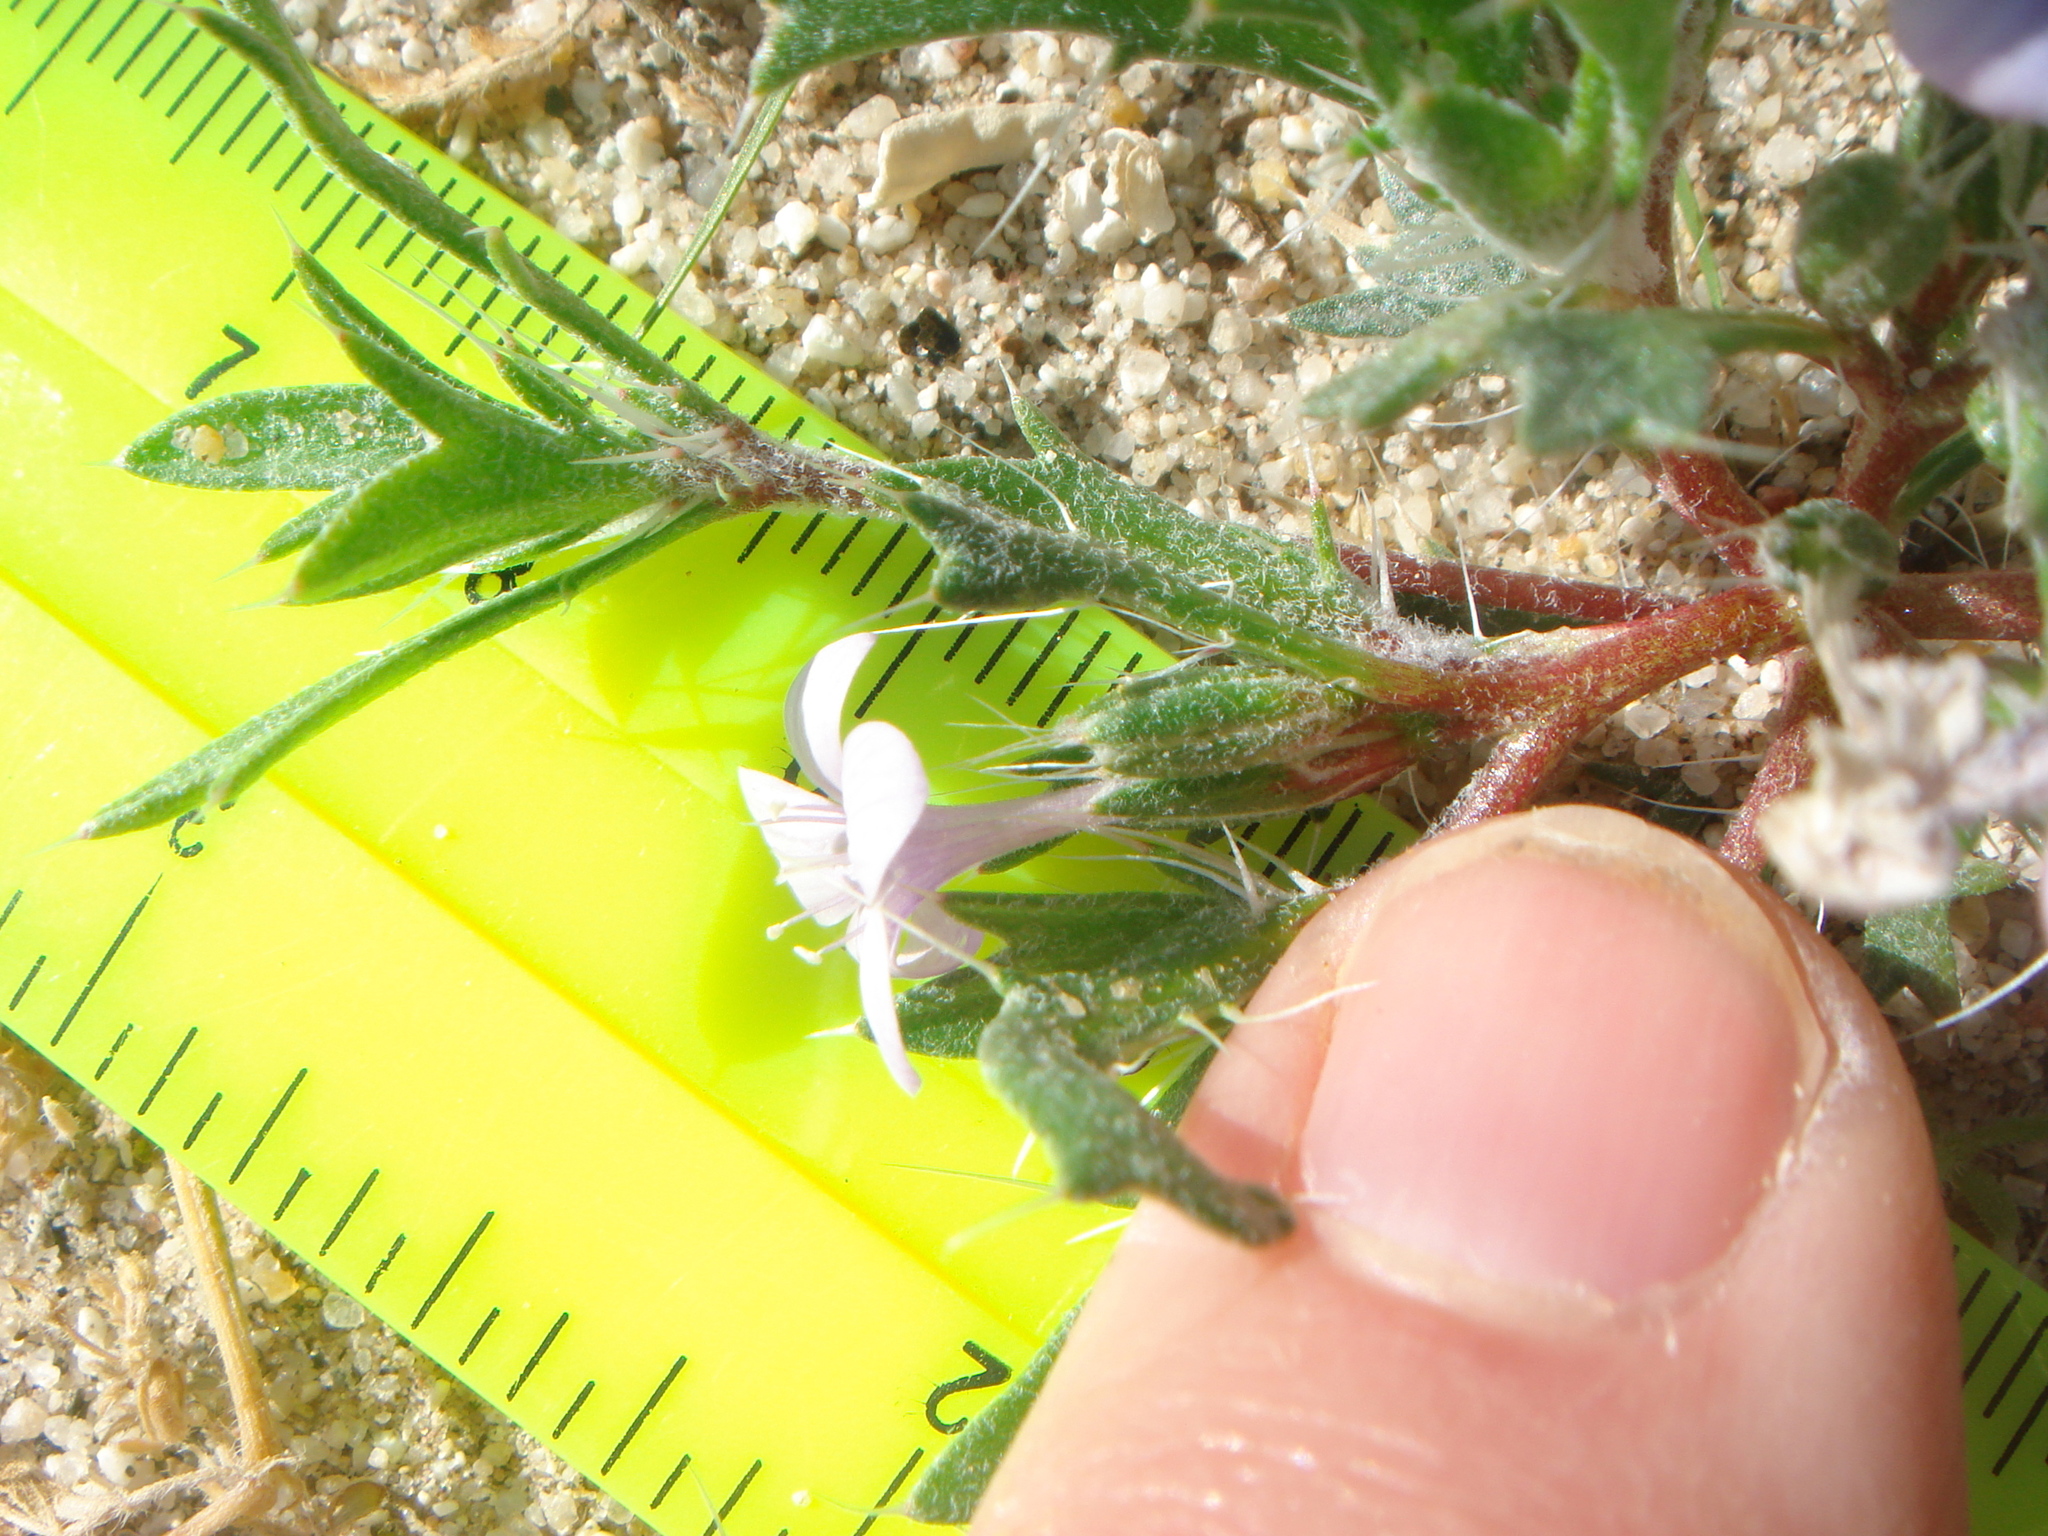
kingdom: Plantae
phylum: Tracheophyta
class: Magnoliopsida
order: Ericales
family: Polemoniaceae
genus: Langloisia
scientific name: Langloisia setosissima
